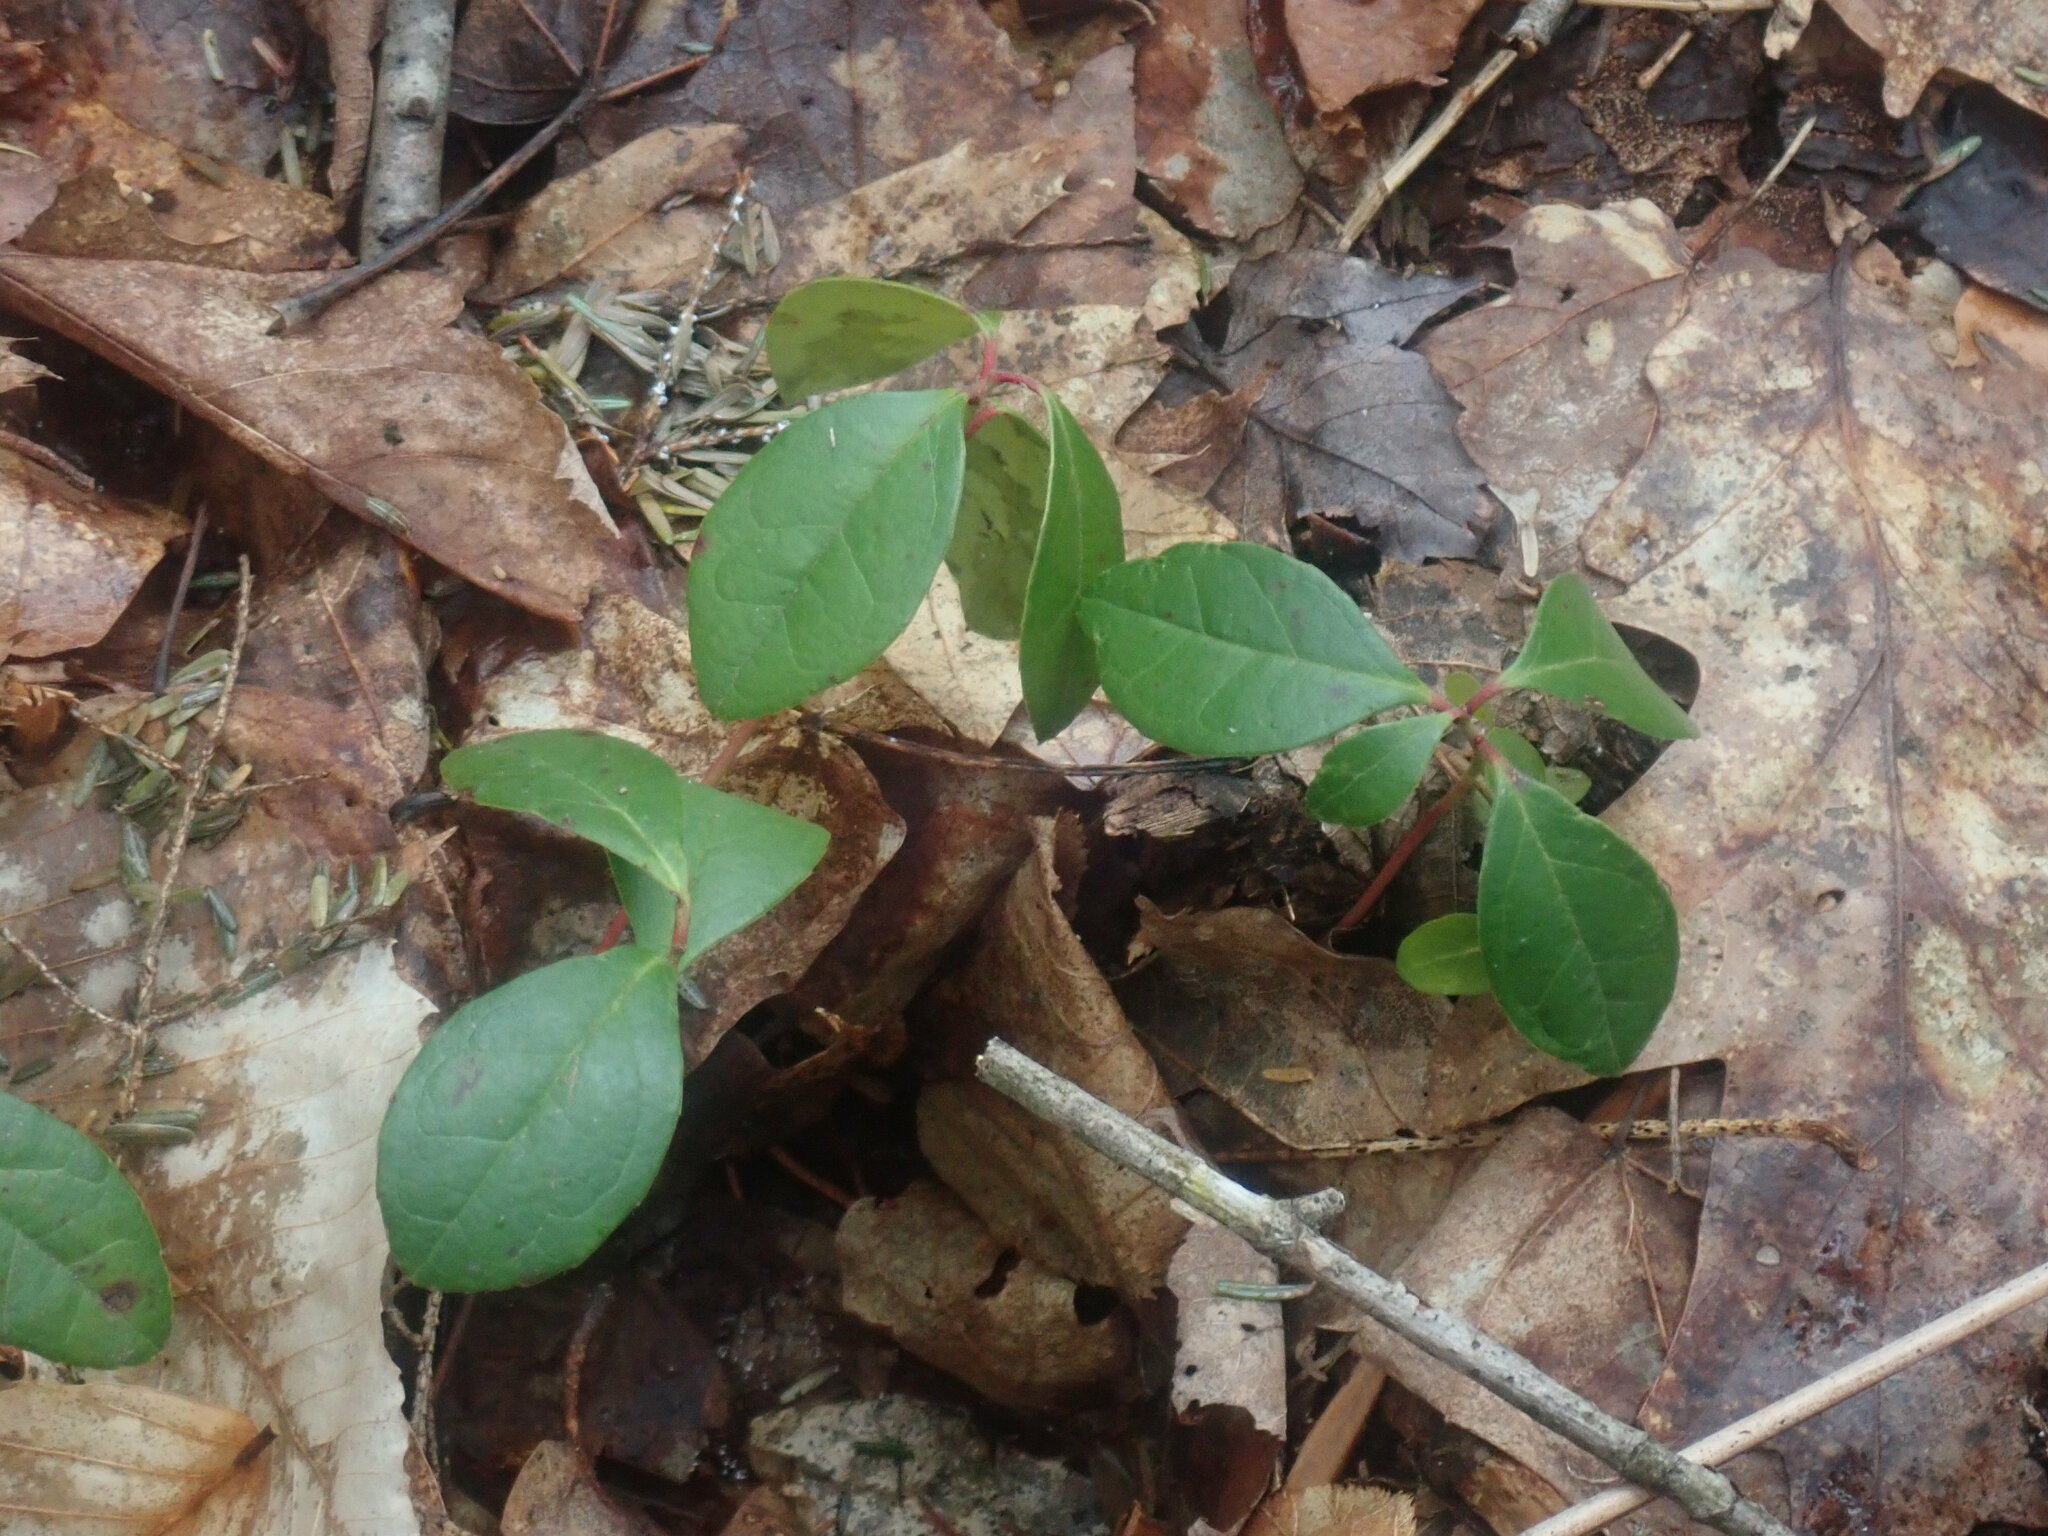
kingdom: Plantae
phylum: Tracheophyta
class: Magnoliopsida
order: Ericales
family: Ericaceae
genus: Gaultheria
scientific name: Gaultheria procumbens
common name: Checkerberry
